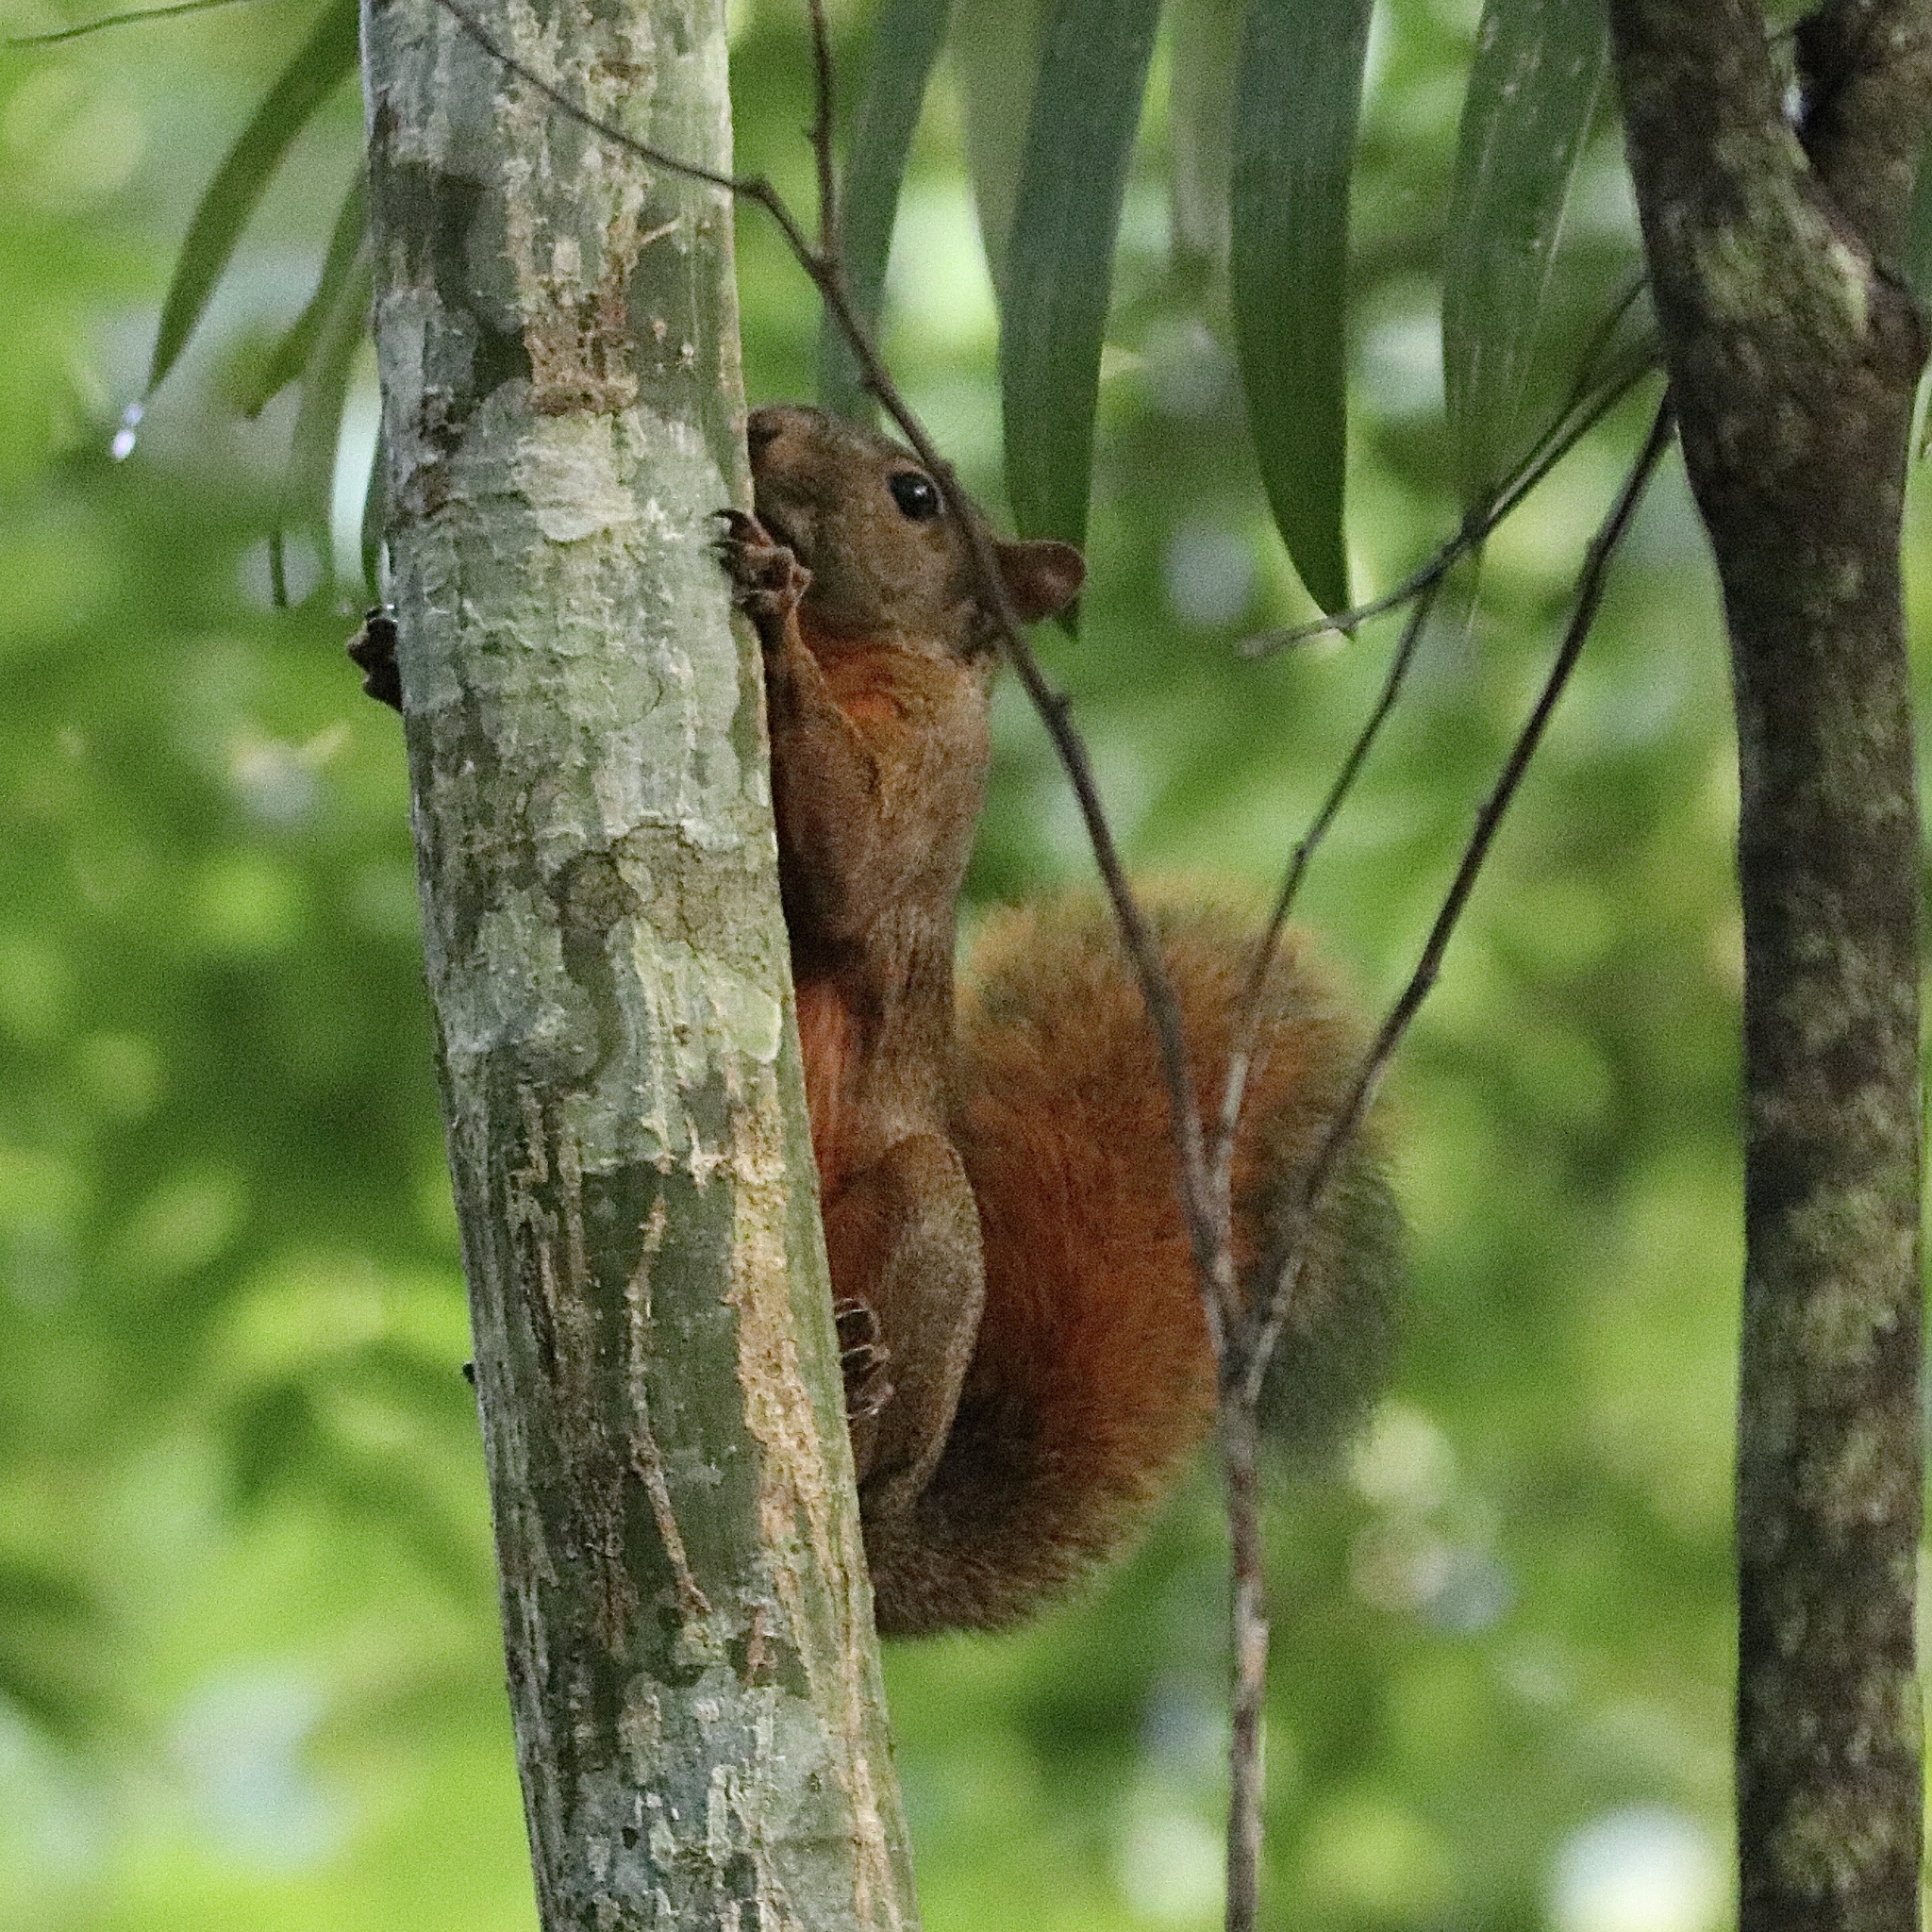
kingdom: Animalia
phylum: Chordata
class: Mammalia
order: Rodentia
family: Sciuridae
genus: Sciurus
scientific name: Sciurus granatensis
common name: Red-tailed squirrel
